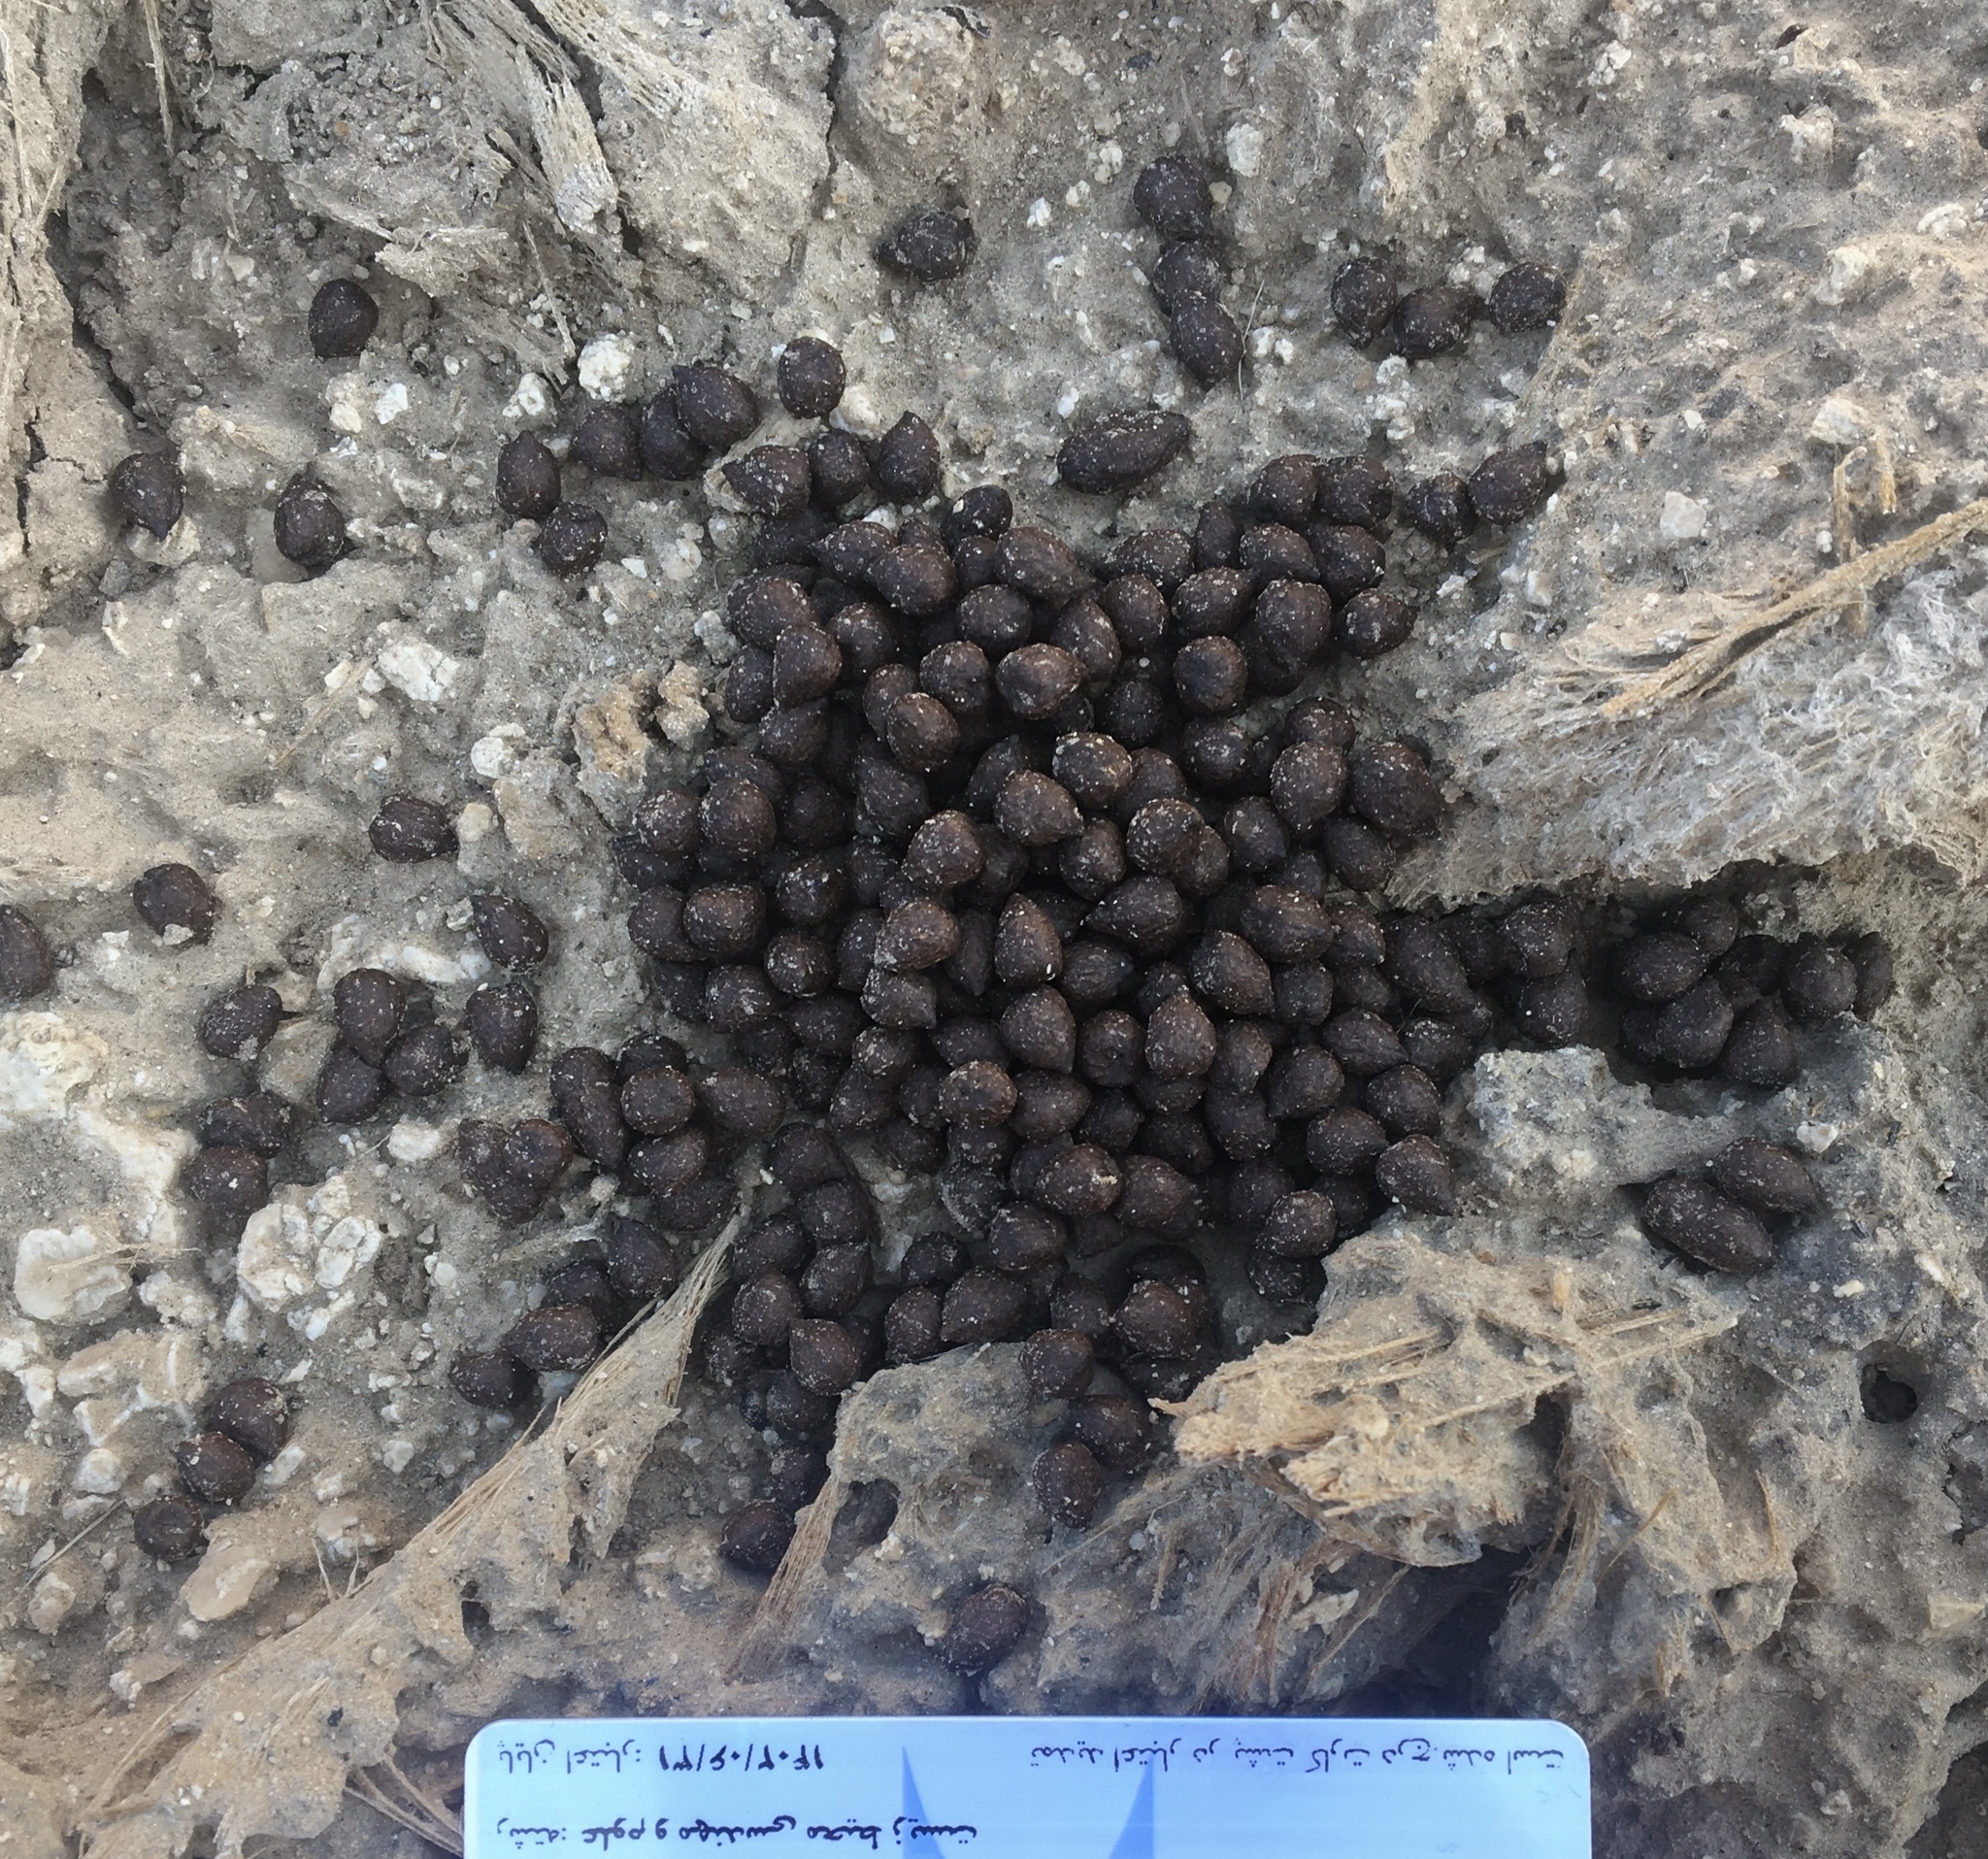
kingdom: Animalia
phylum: Chordata
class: Mammalia
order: Artiodactyla
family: Bovidae
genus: Gazella
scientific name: Gazella bennettii
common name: Indian gazelle
